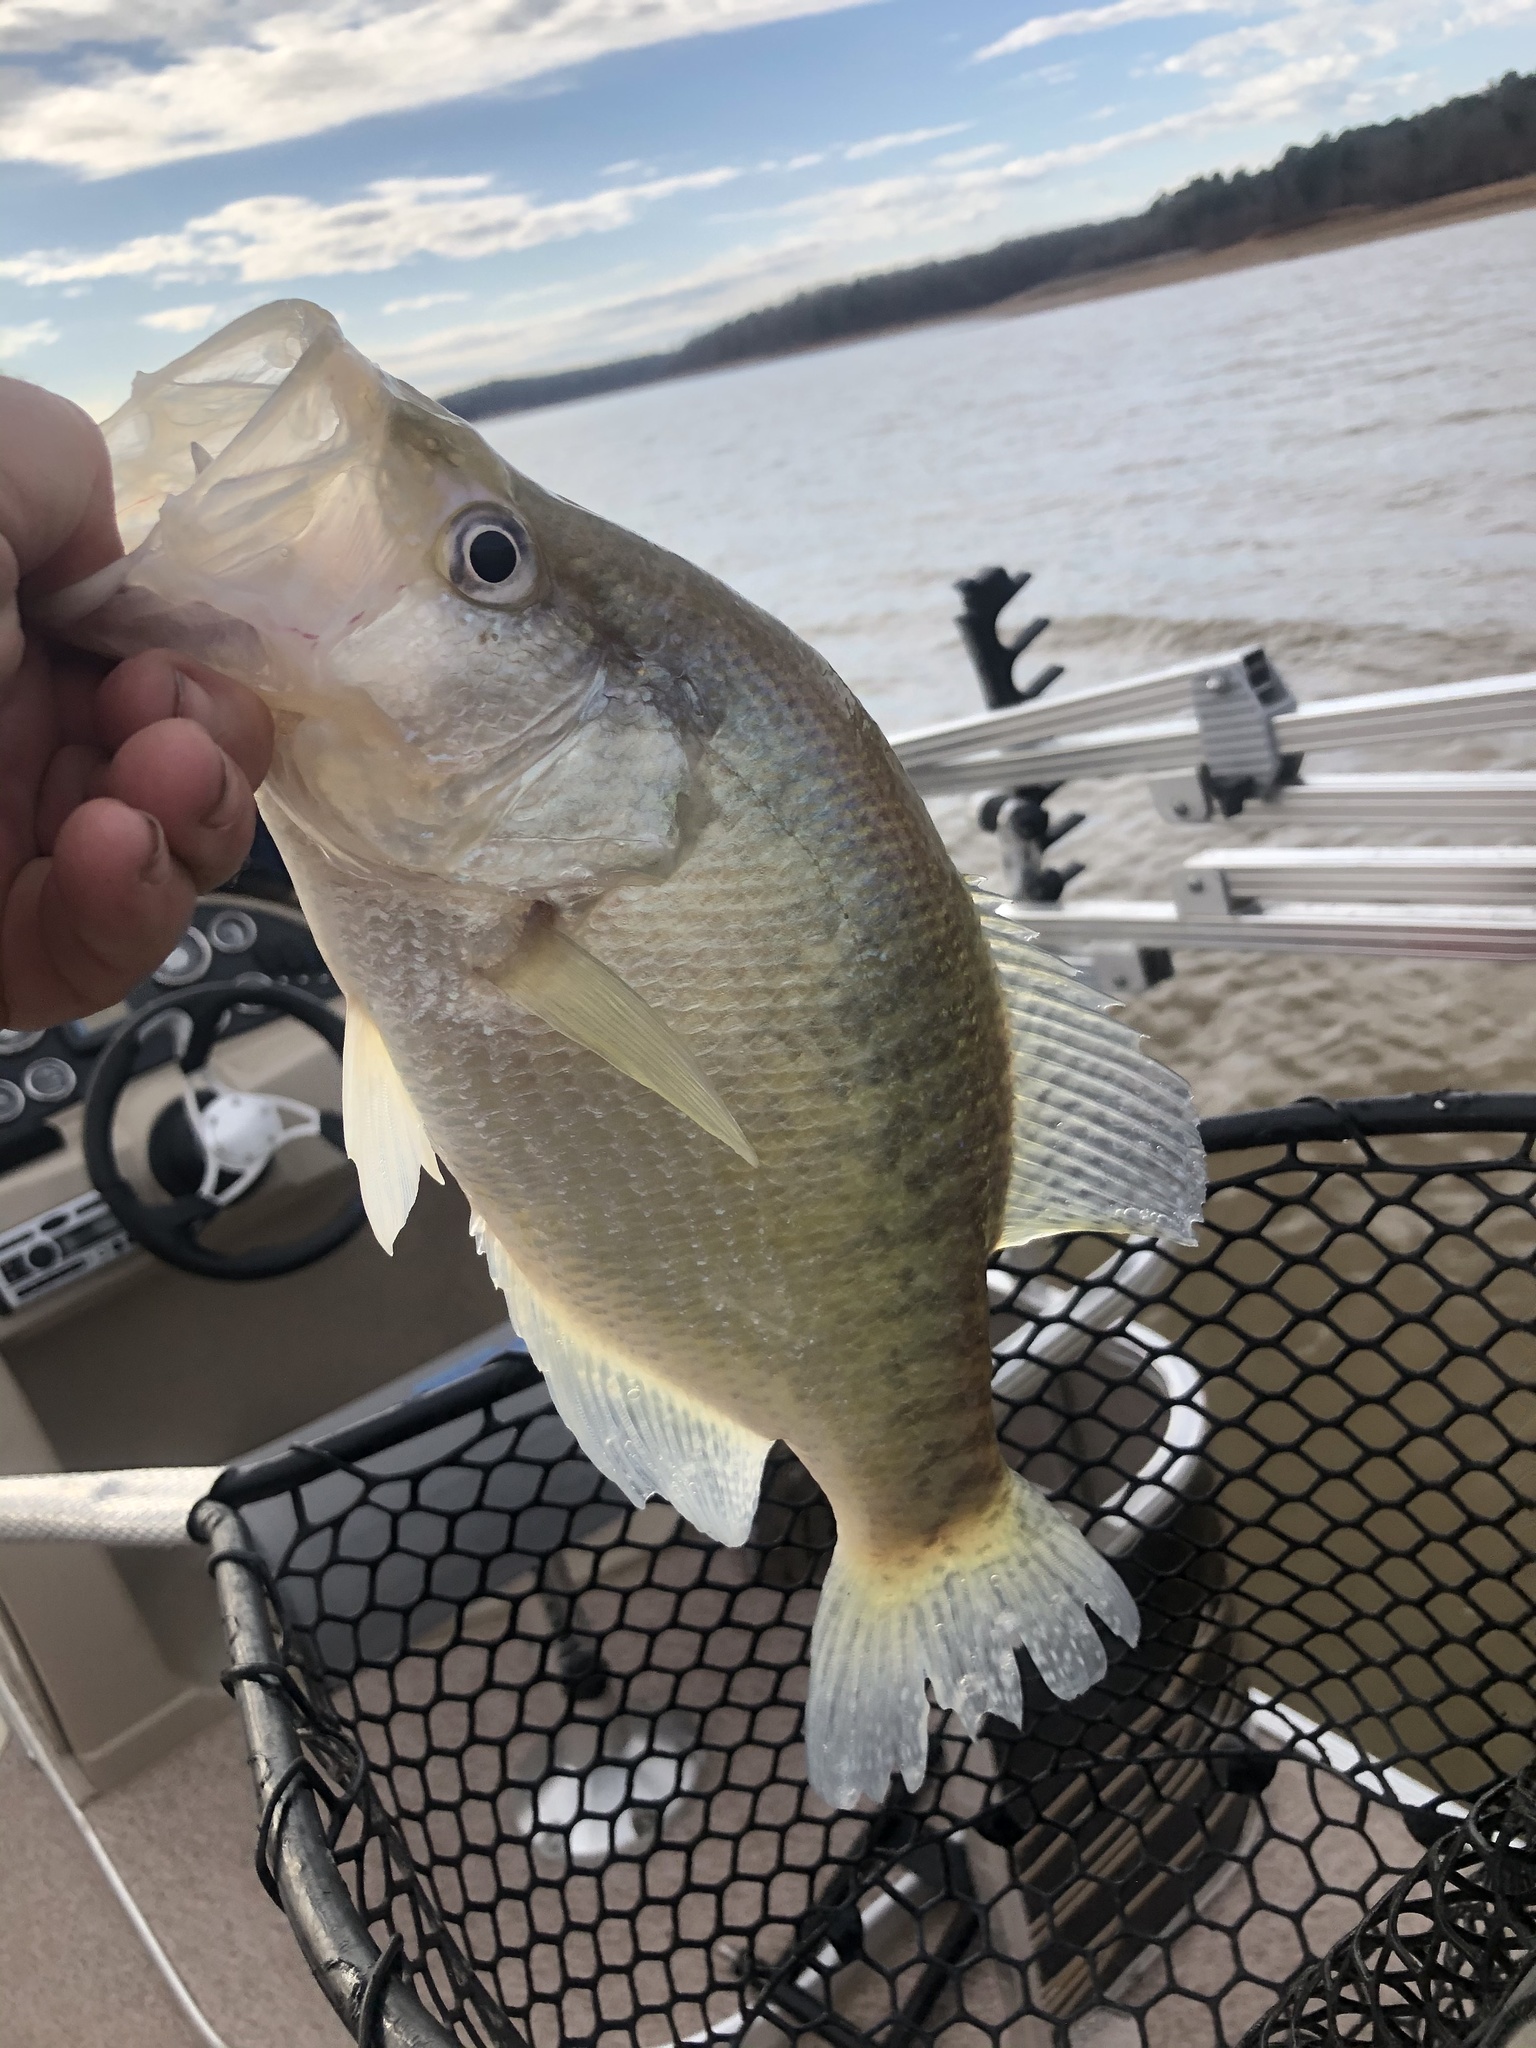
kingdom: Animalia
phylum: Chordata
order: Perciformes
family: Centrarchidae
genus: Pomoxis
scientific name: Pomoxis annularis
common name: White crappie
